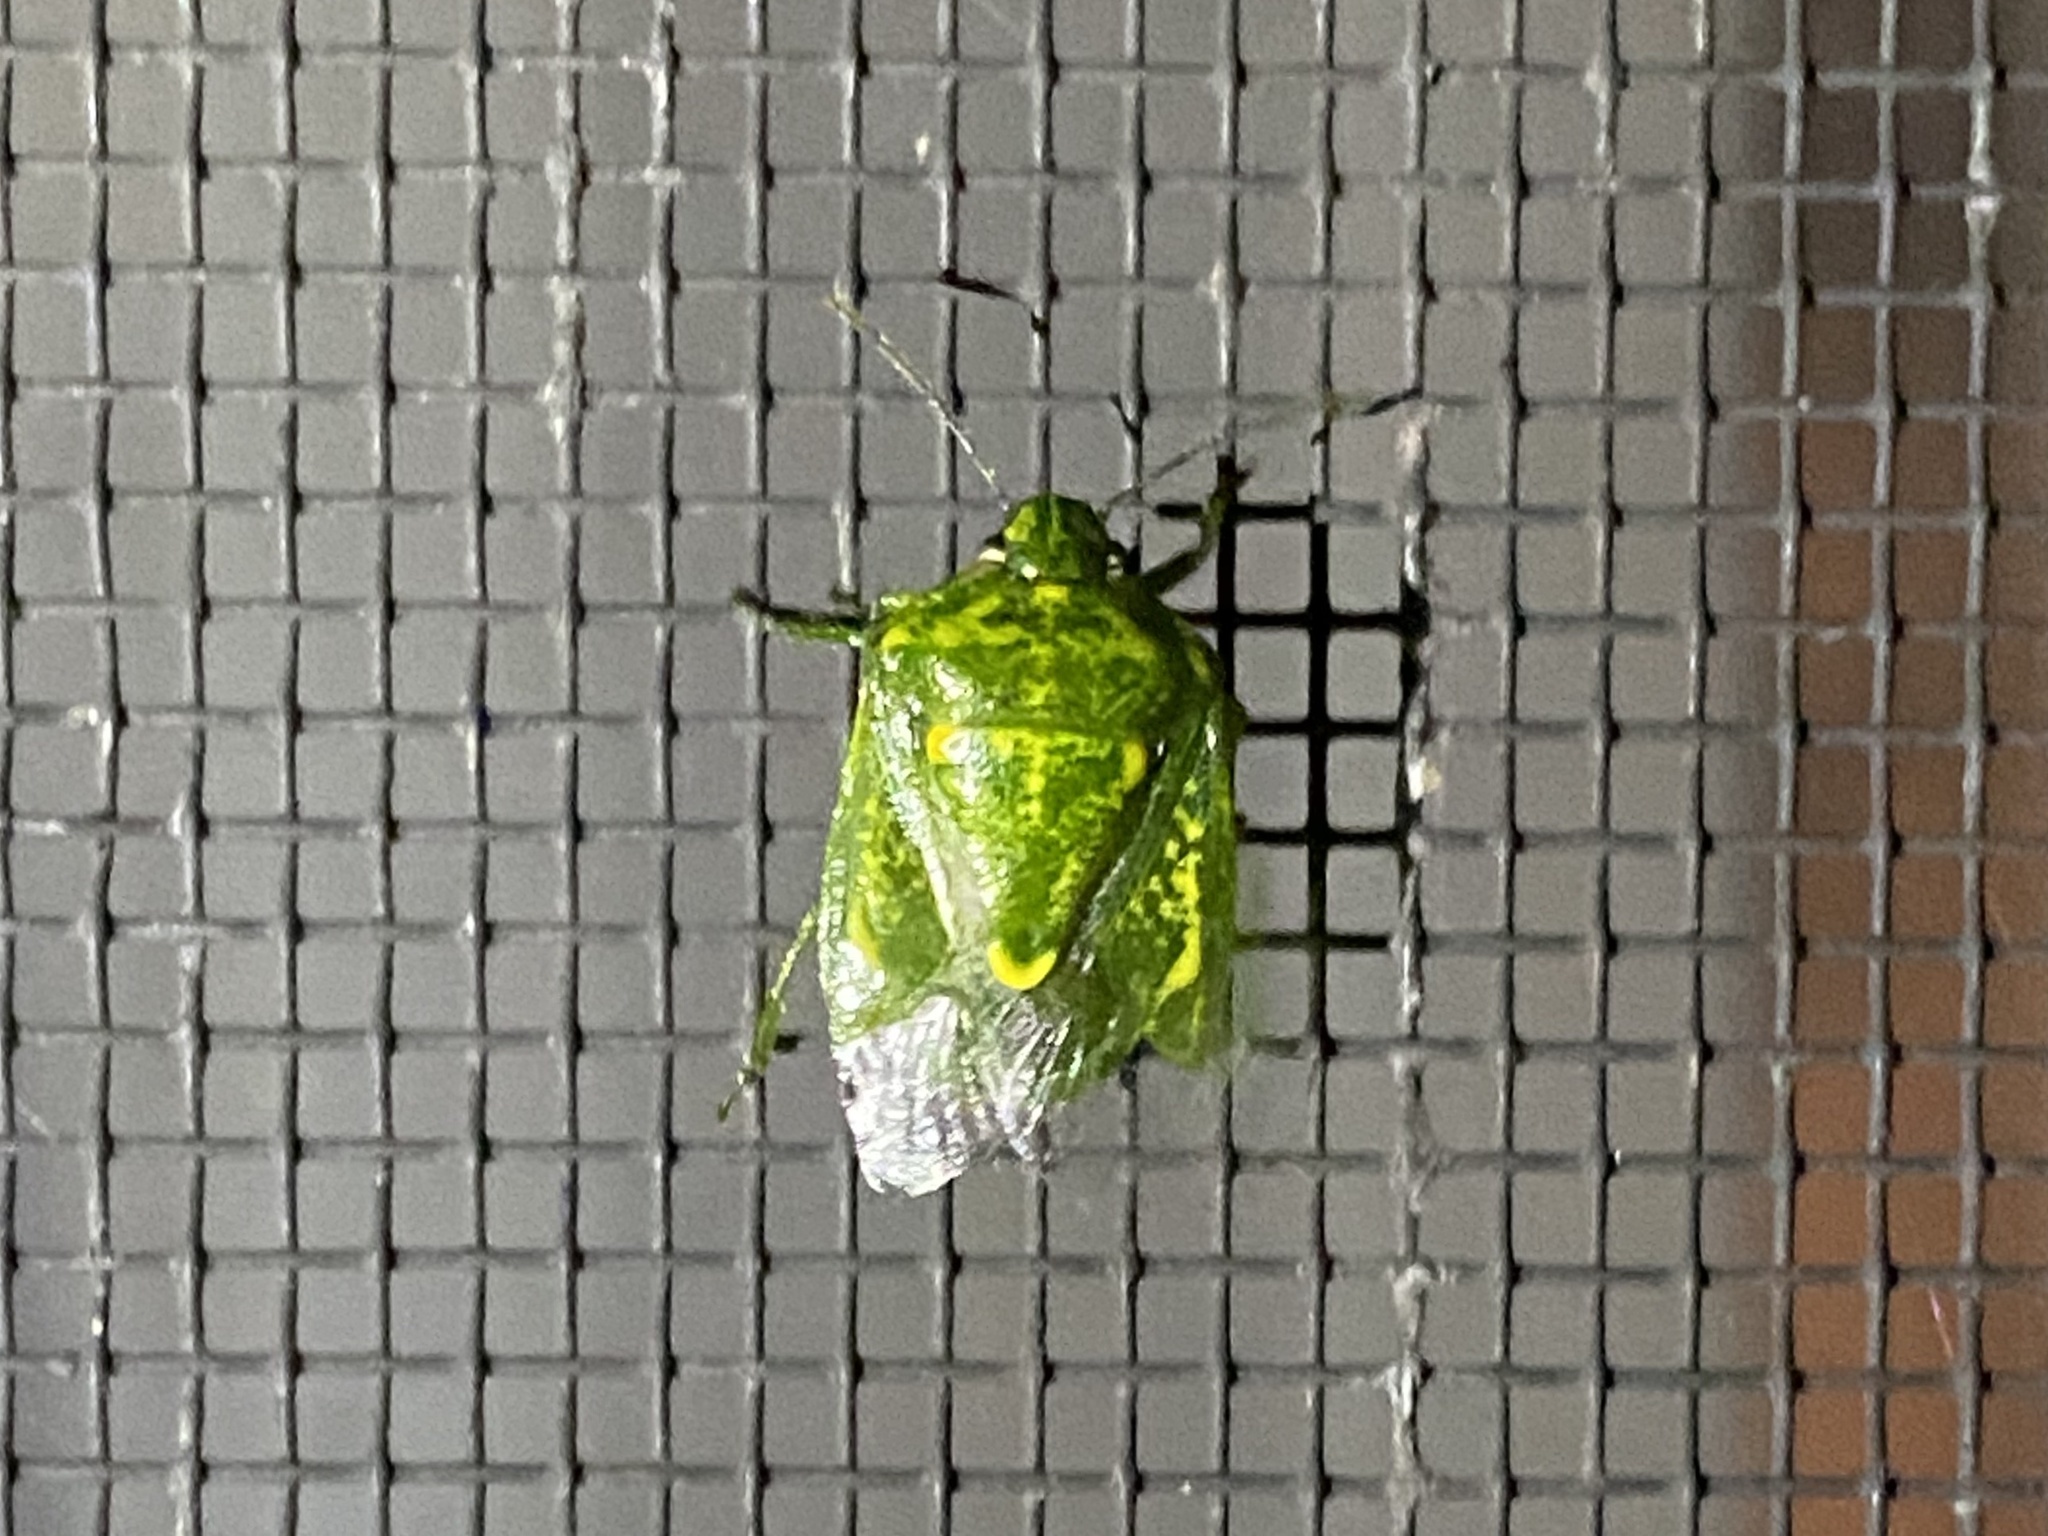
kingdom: Animalia
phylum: Arthropoda
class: Insecta
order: Hemiptera
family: Pentatomidae
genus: Banasa
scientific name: Banasa euchlora
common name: Cedar berry bug
